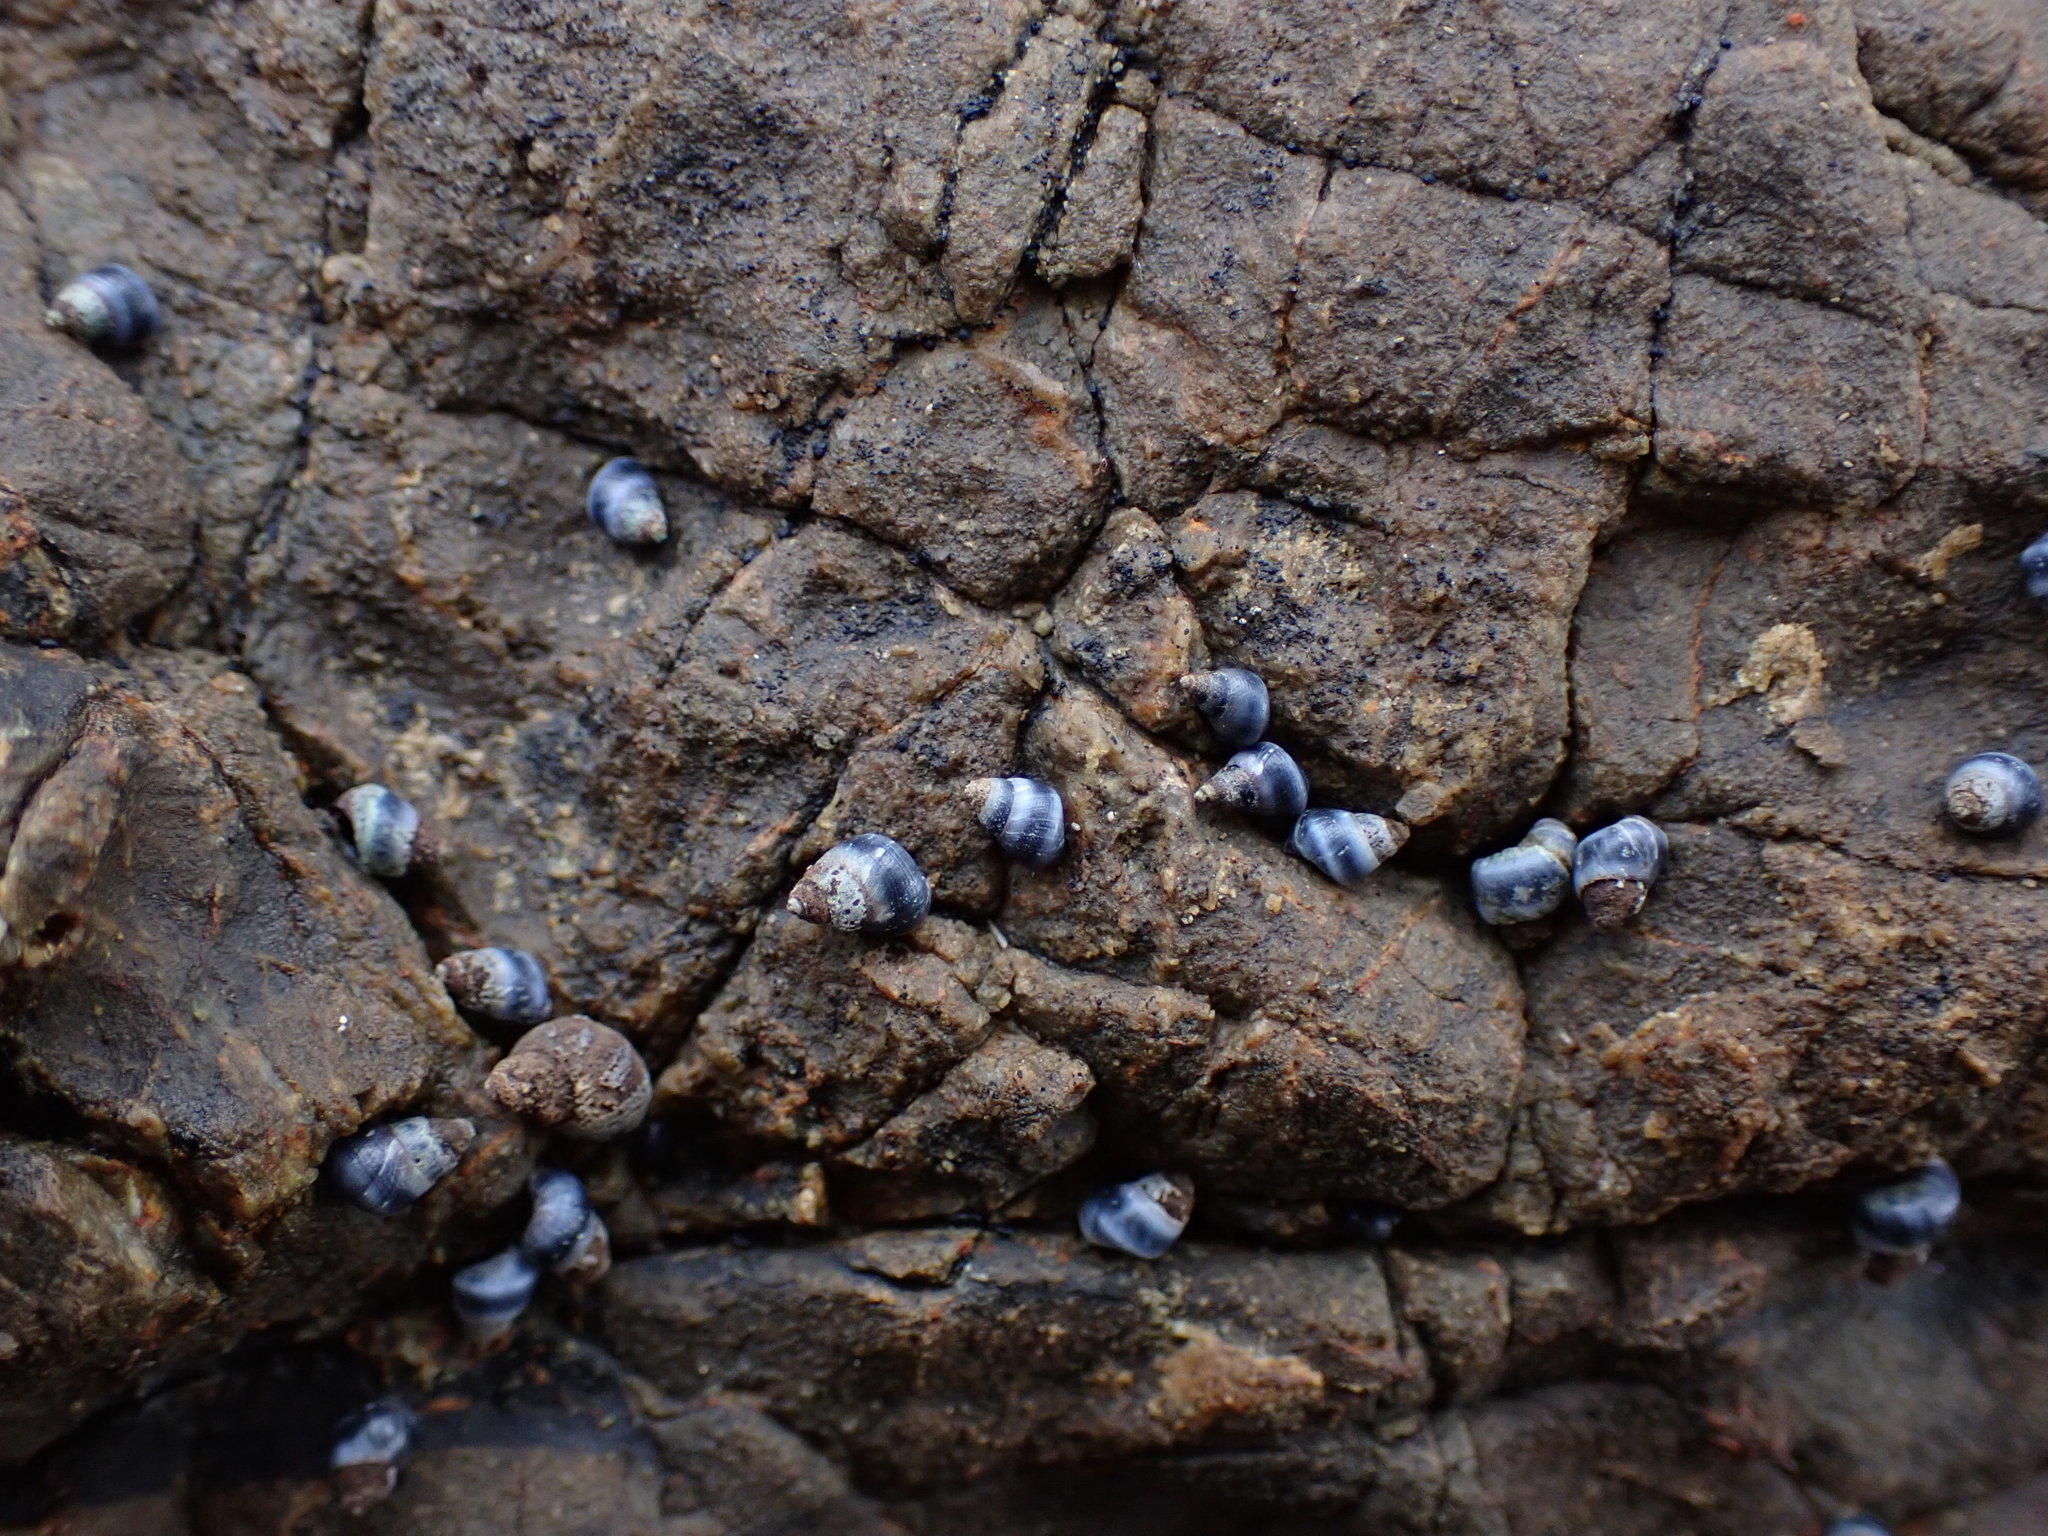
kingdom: Animalia
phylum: Mollusca
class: Gastropoda
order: Littorinimorpha
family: Littorinidae
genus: Austrolittorina
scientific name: Austrolittorina antipodum
